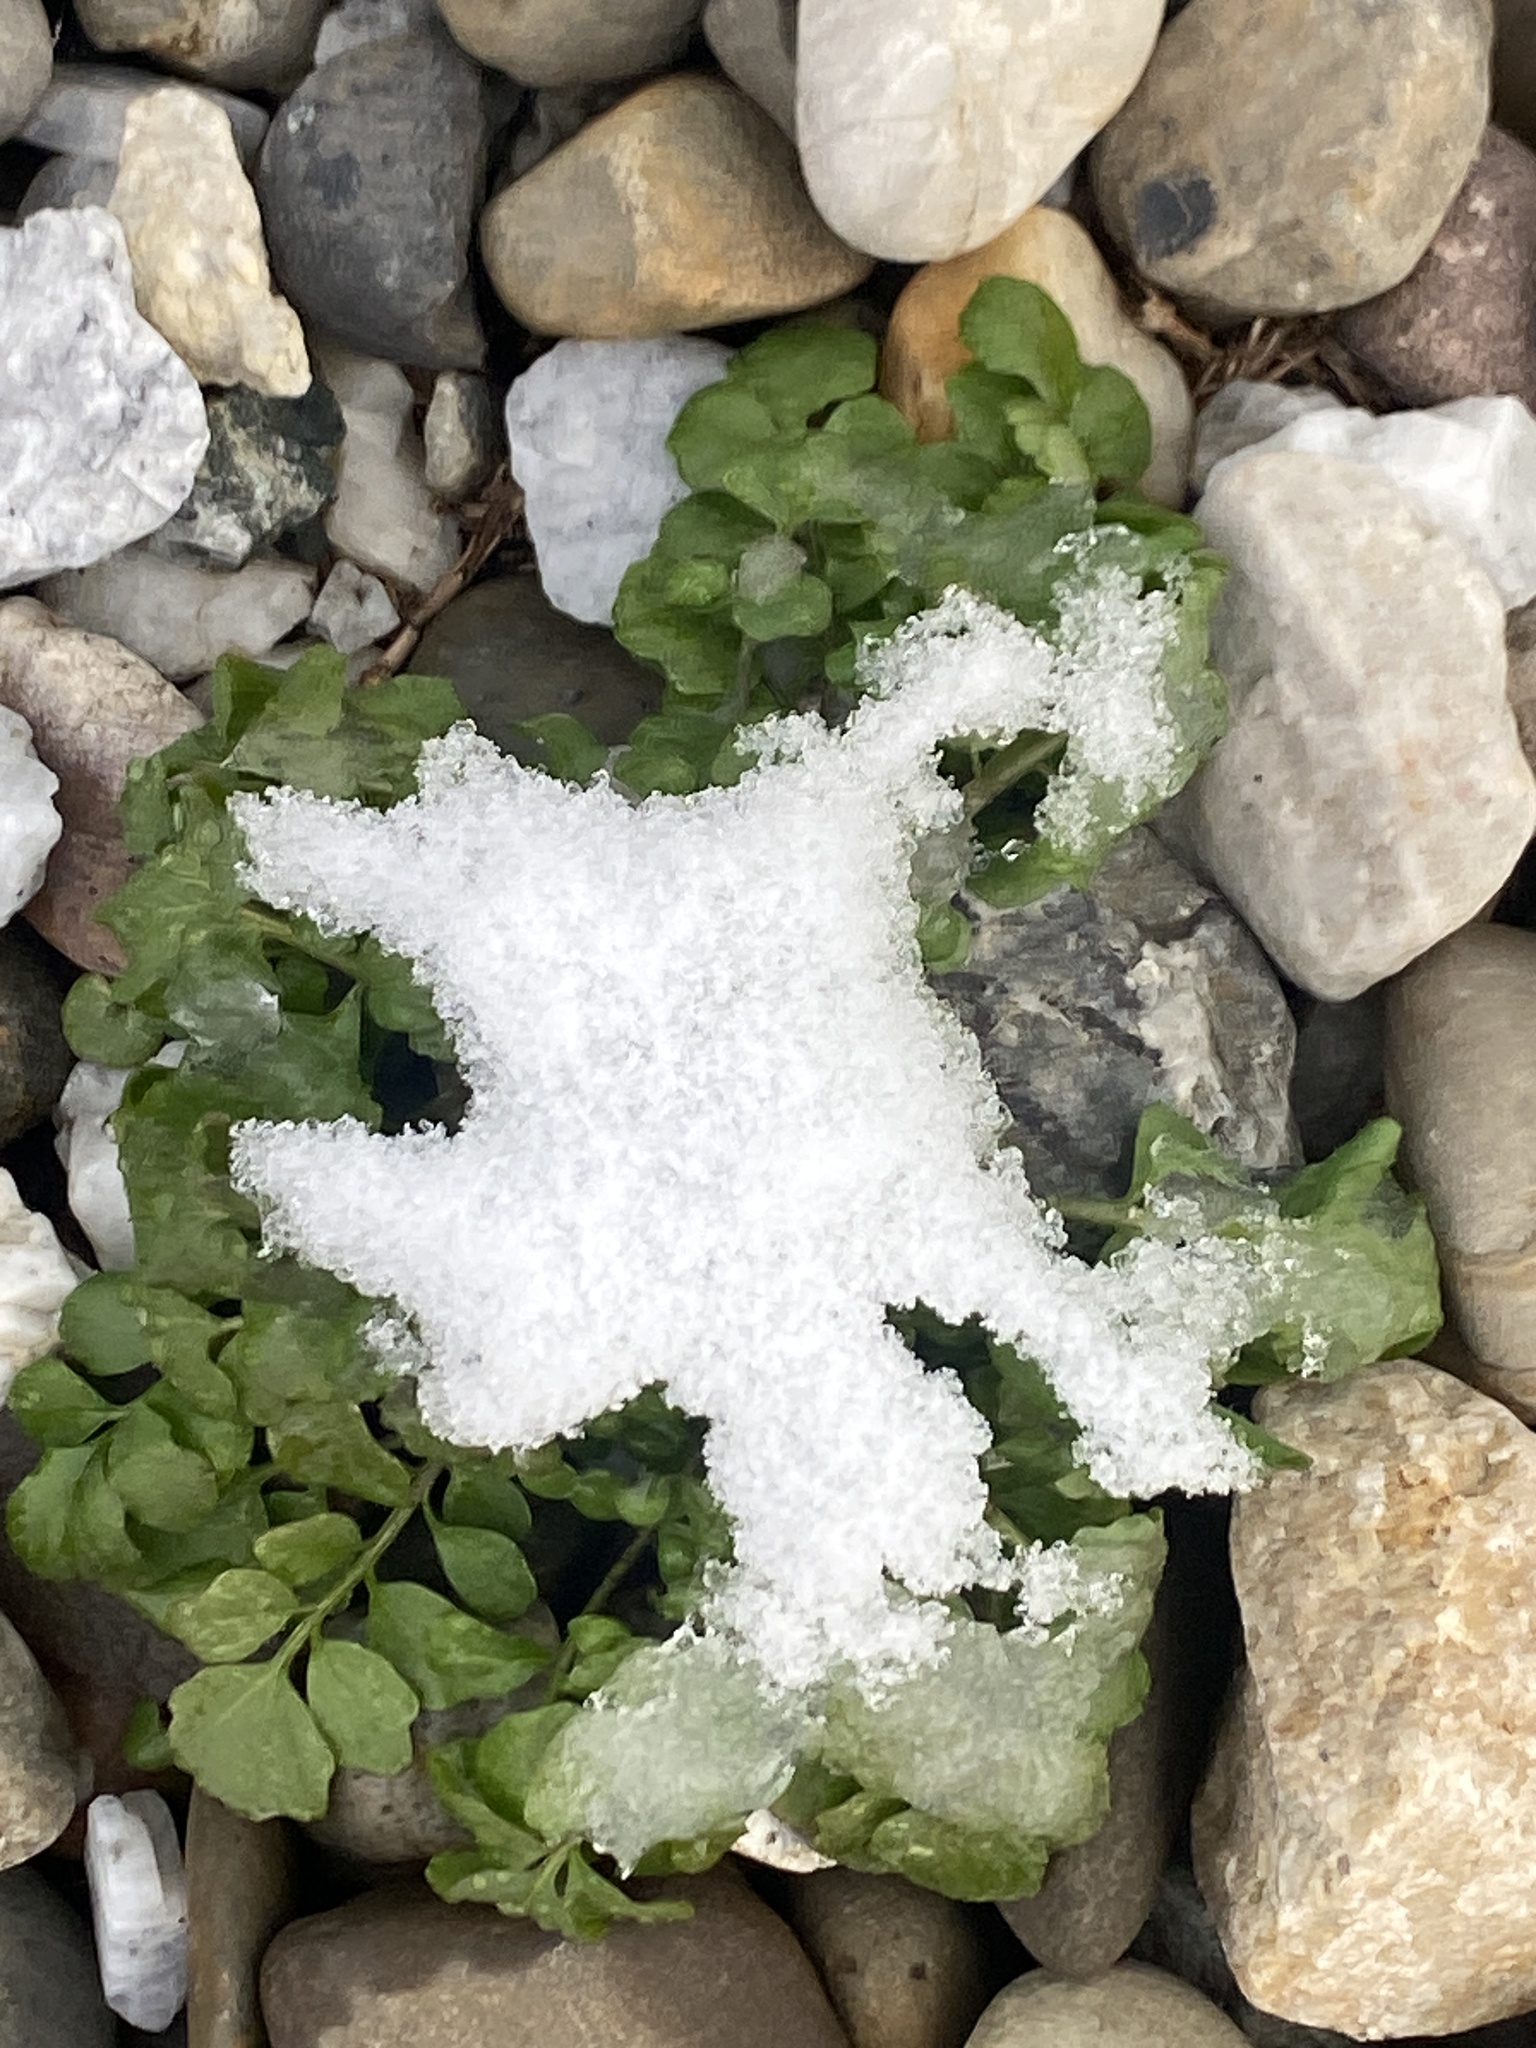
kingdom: Plantae
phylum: Tracheophyta
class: Magnoliopsida
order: Brassicales
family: Brassicaceae
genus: Cardamine
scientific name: Cardamine hirsuta
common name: Hairy bittercress
